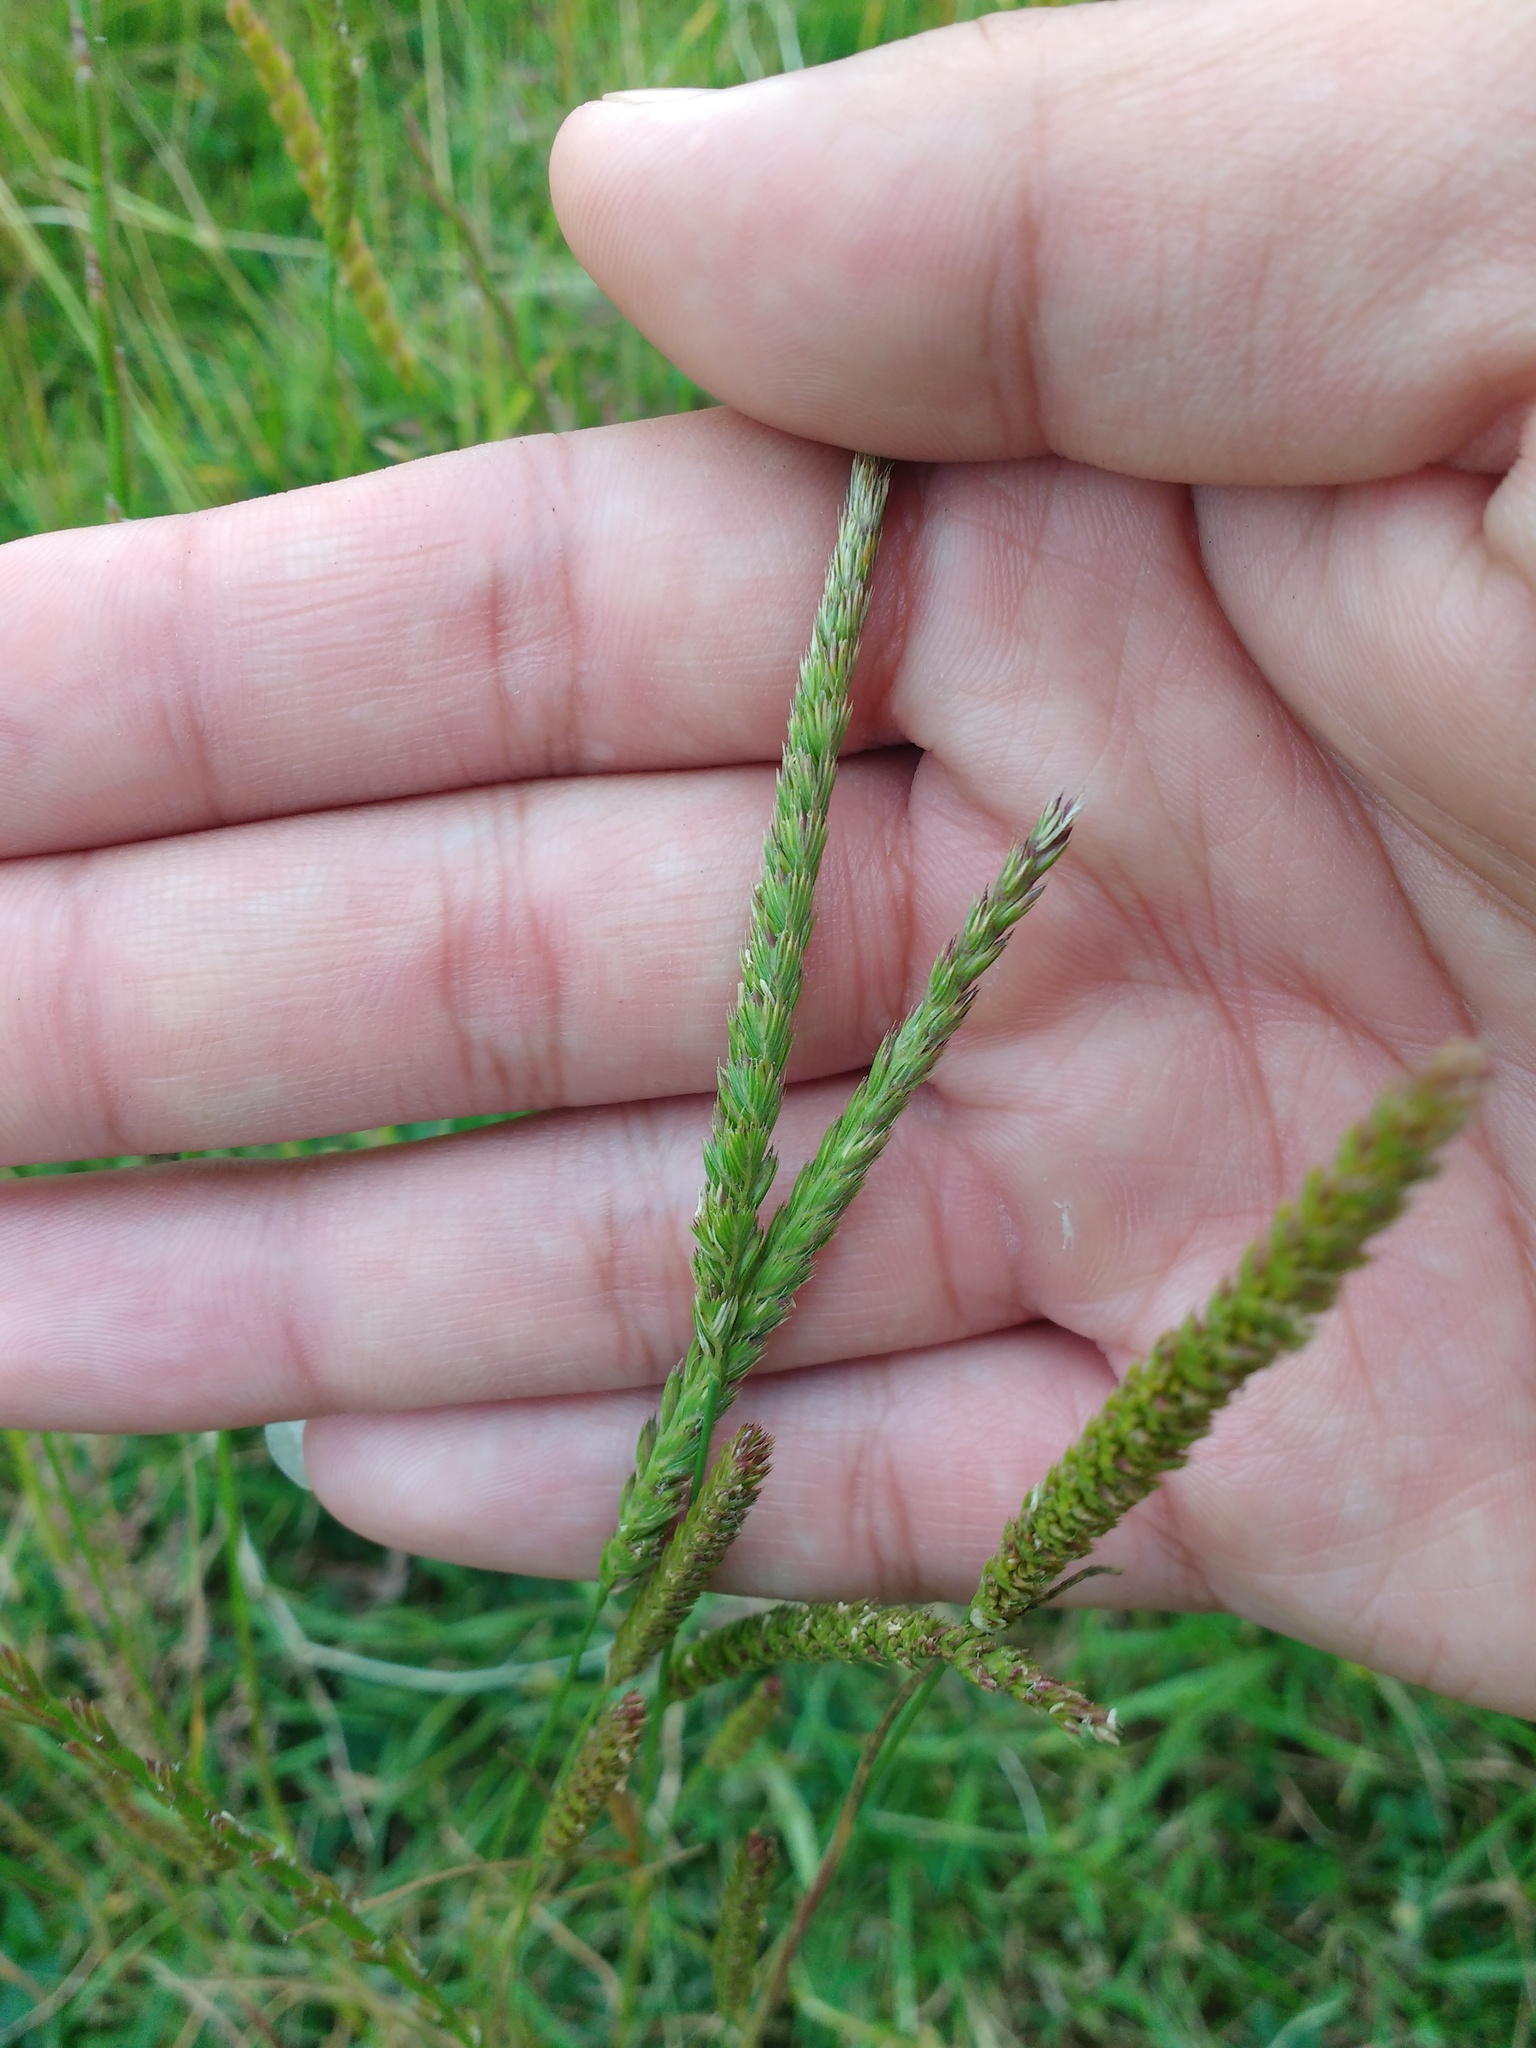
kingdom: Plantae
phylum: Tracheophyta
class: Liliopsida
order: Poales
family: Poaceae
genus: Cynosurus
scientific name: Cynosurus cristatus
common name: Crested dog's-tail
